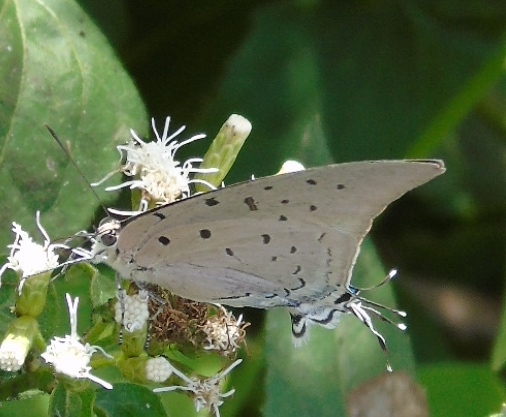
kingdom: Animalia
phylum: Arthropoda
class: Insecta
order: Lepidoptera
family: Lycaenidae
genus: Pseudolycaena
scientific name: Pseudolycaena damo
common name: Sky-blue hairstreak
